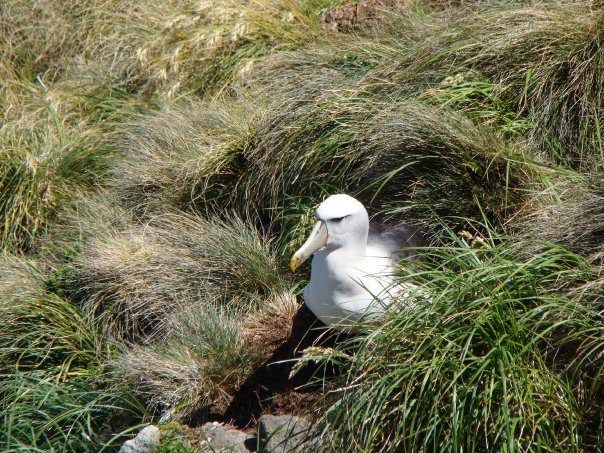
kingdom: Animalia
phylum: Chordata
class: Aves
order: Procellariiformes
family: Diomedeidae
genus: Thalassarche
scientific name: Thalassarche cauta
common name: Shy albatross
